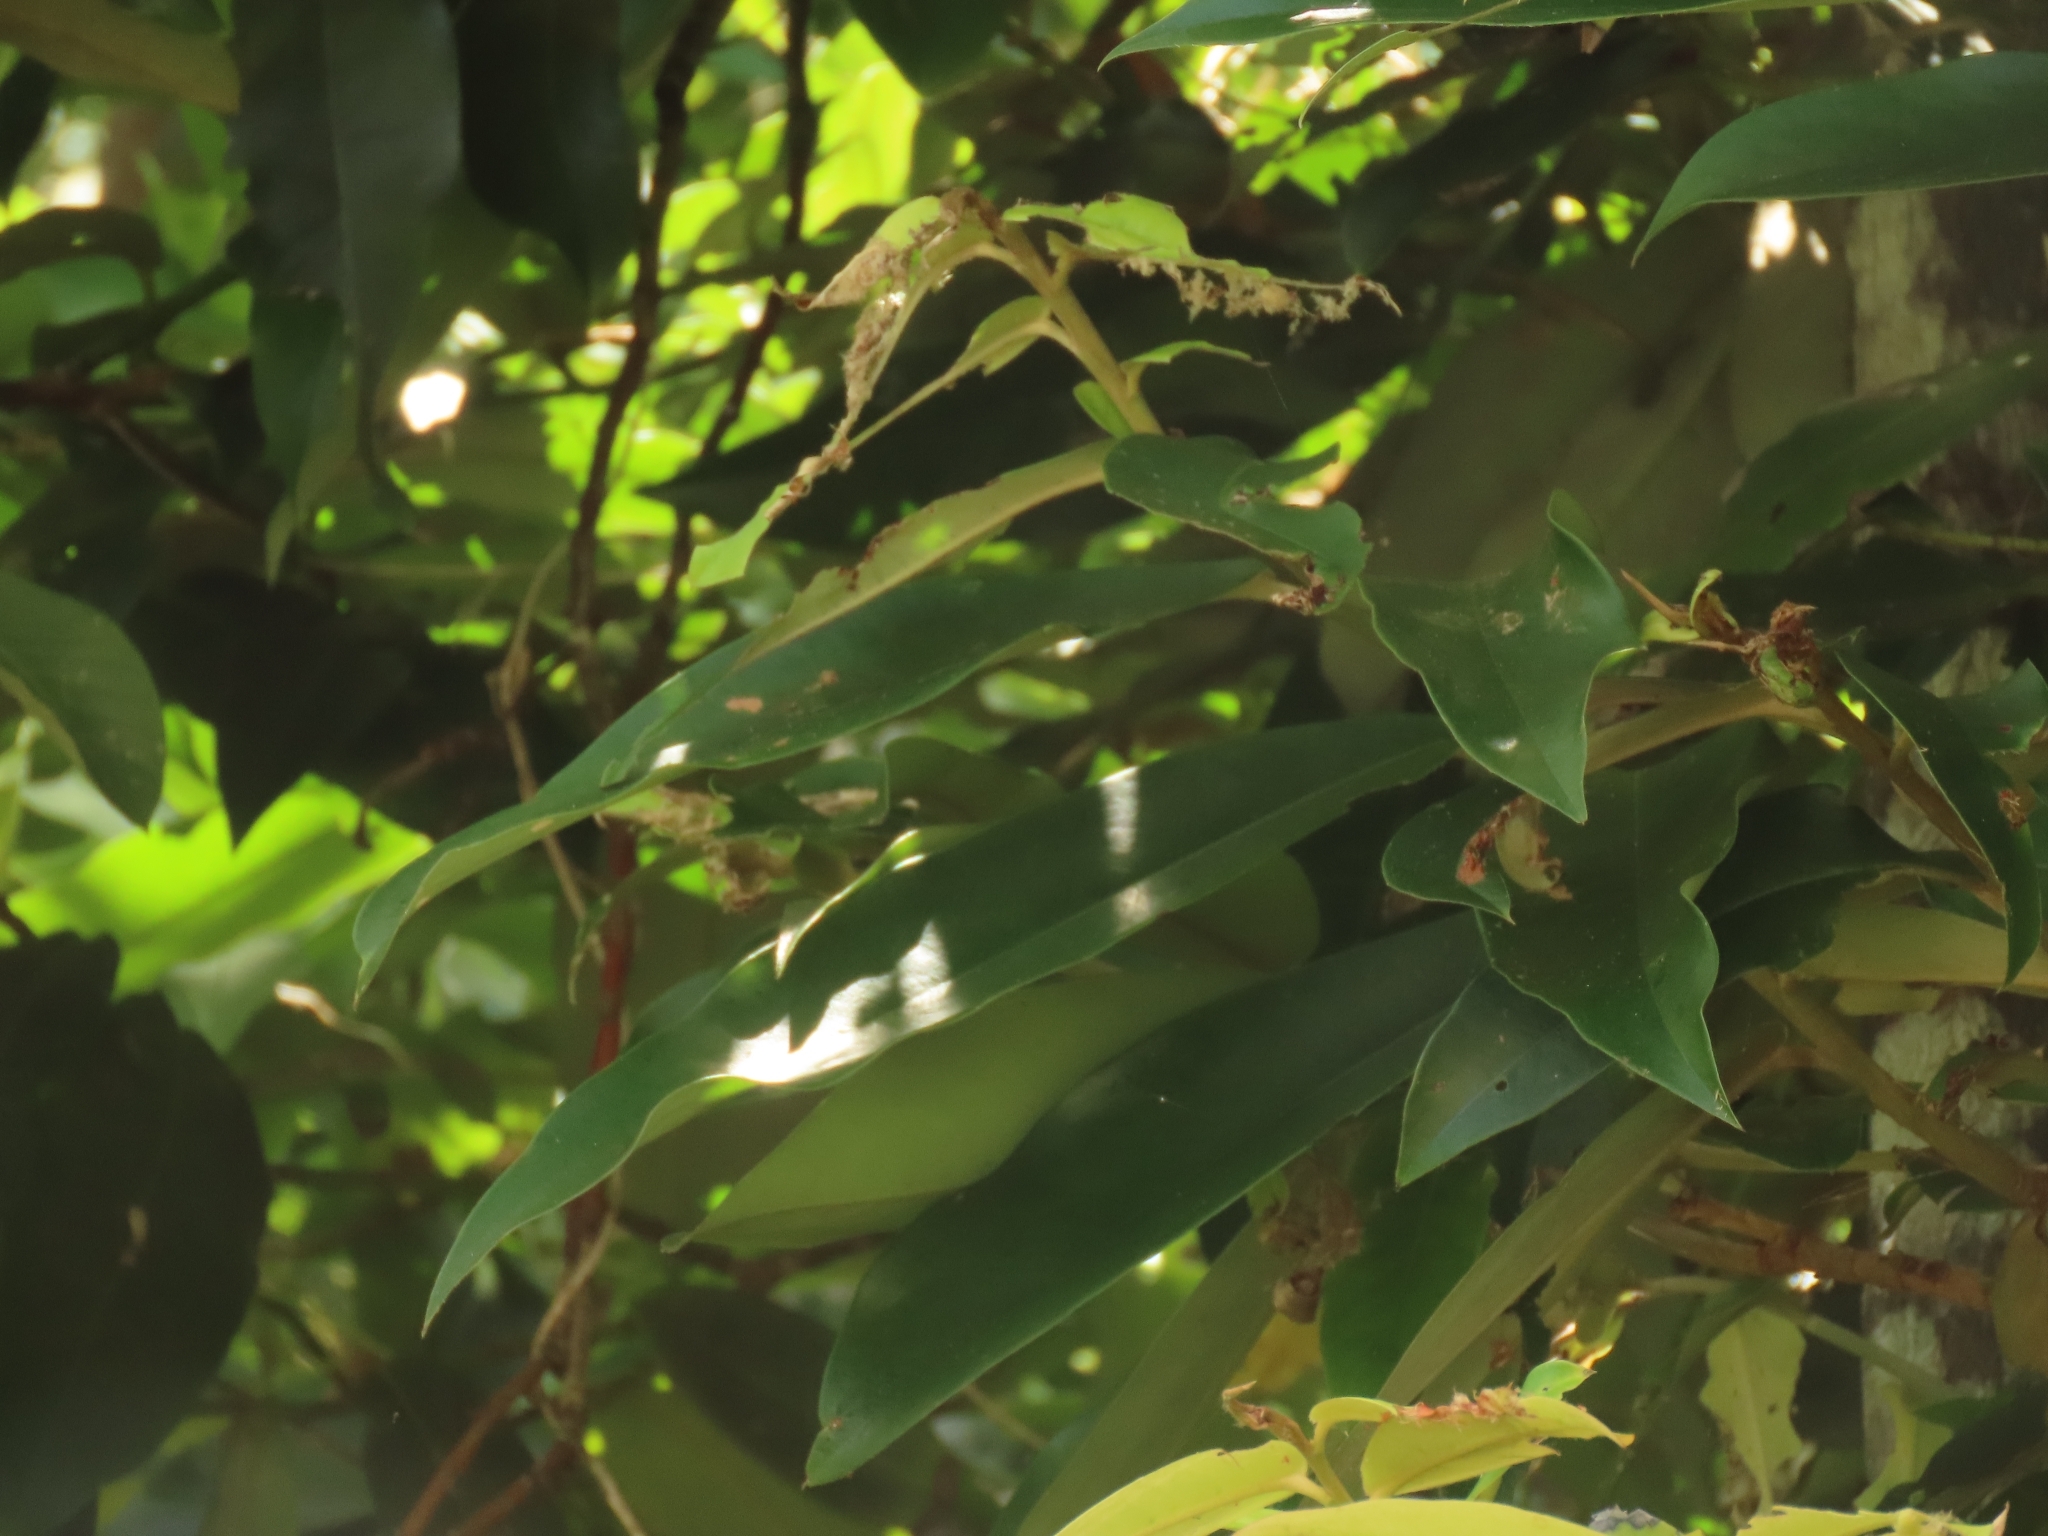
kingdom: Plantae
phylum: Tracheophyta
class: Magnoliopsida
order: Ericales
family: Ebenaceae
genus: Diospyros
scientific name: Diospyros blancoi
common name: Mabola-tree
